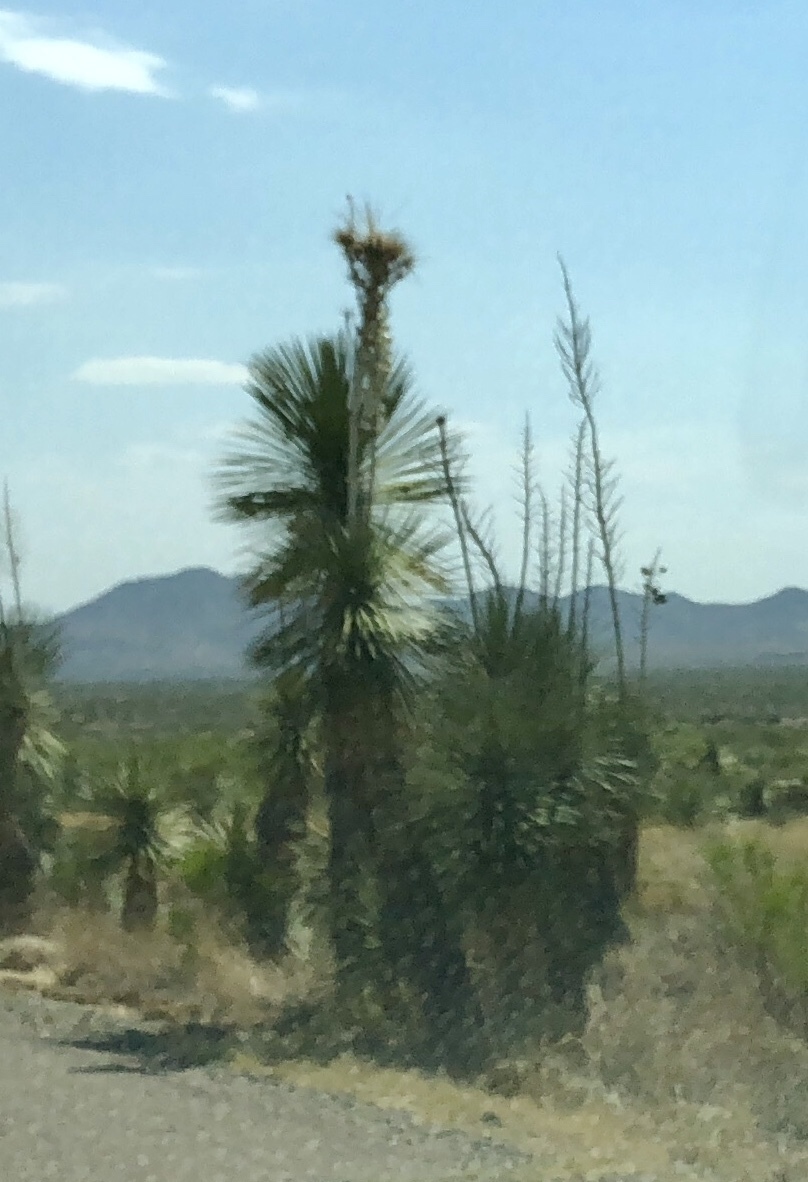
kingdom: Plantae
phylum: Tracheophyta
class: Liliopsida
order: Asparagales
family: Asparagaceae
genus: Yucca
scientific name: Yucca elata
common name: Palmella
